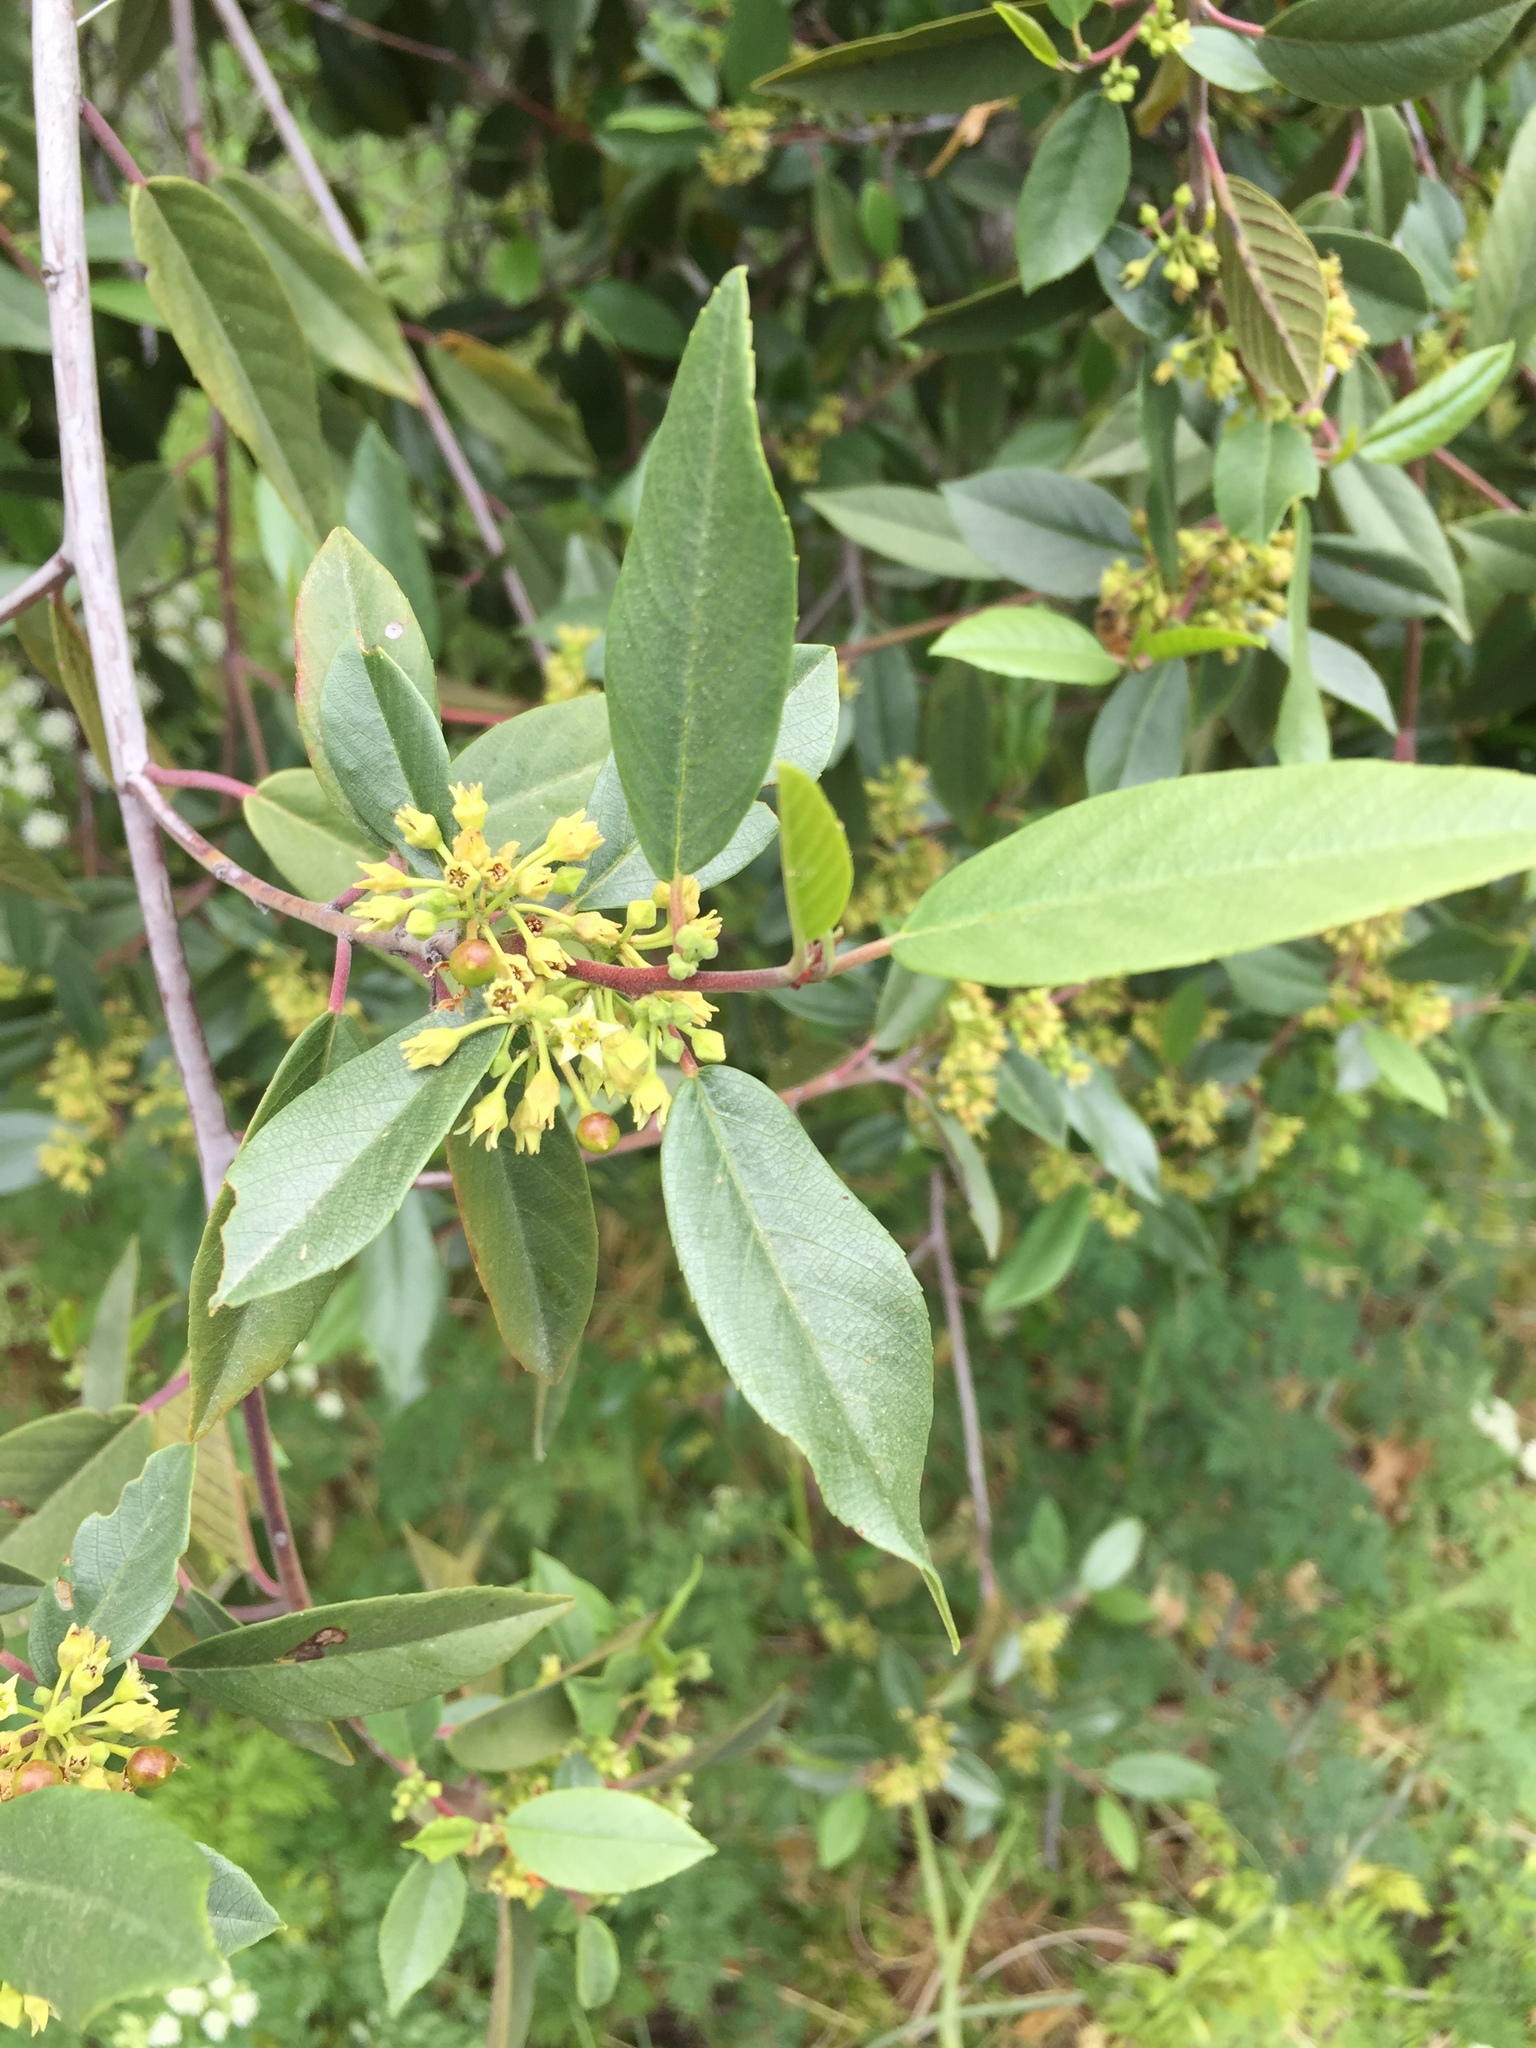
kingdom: Plantae
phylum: Tracheophyta
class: Magnoliopsida
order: Rosales
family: Rhamnaceae
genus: Frangula
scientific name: Frangula californica
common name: California buckthorn
